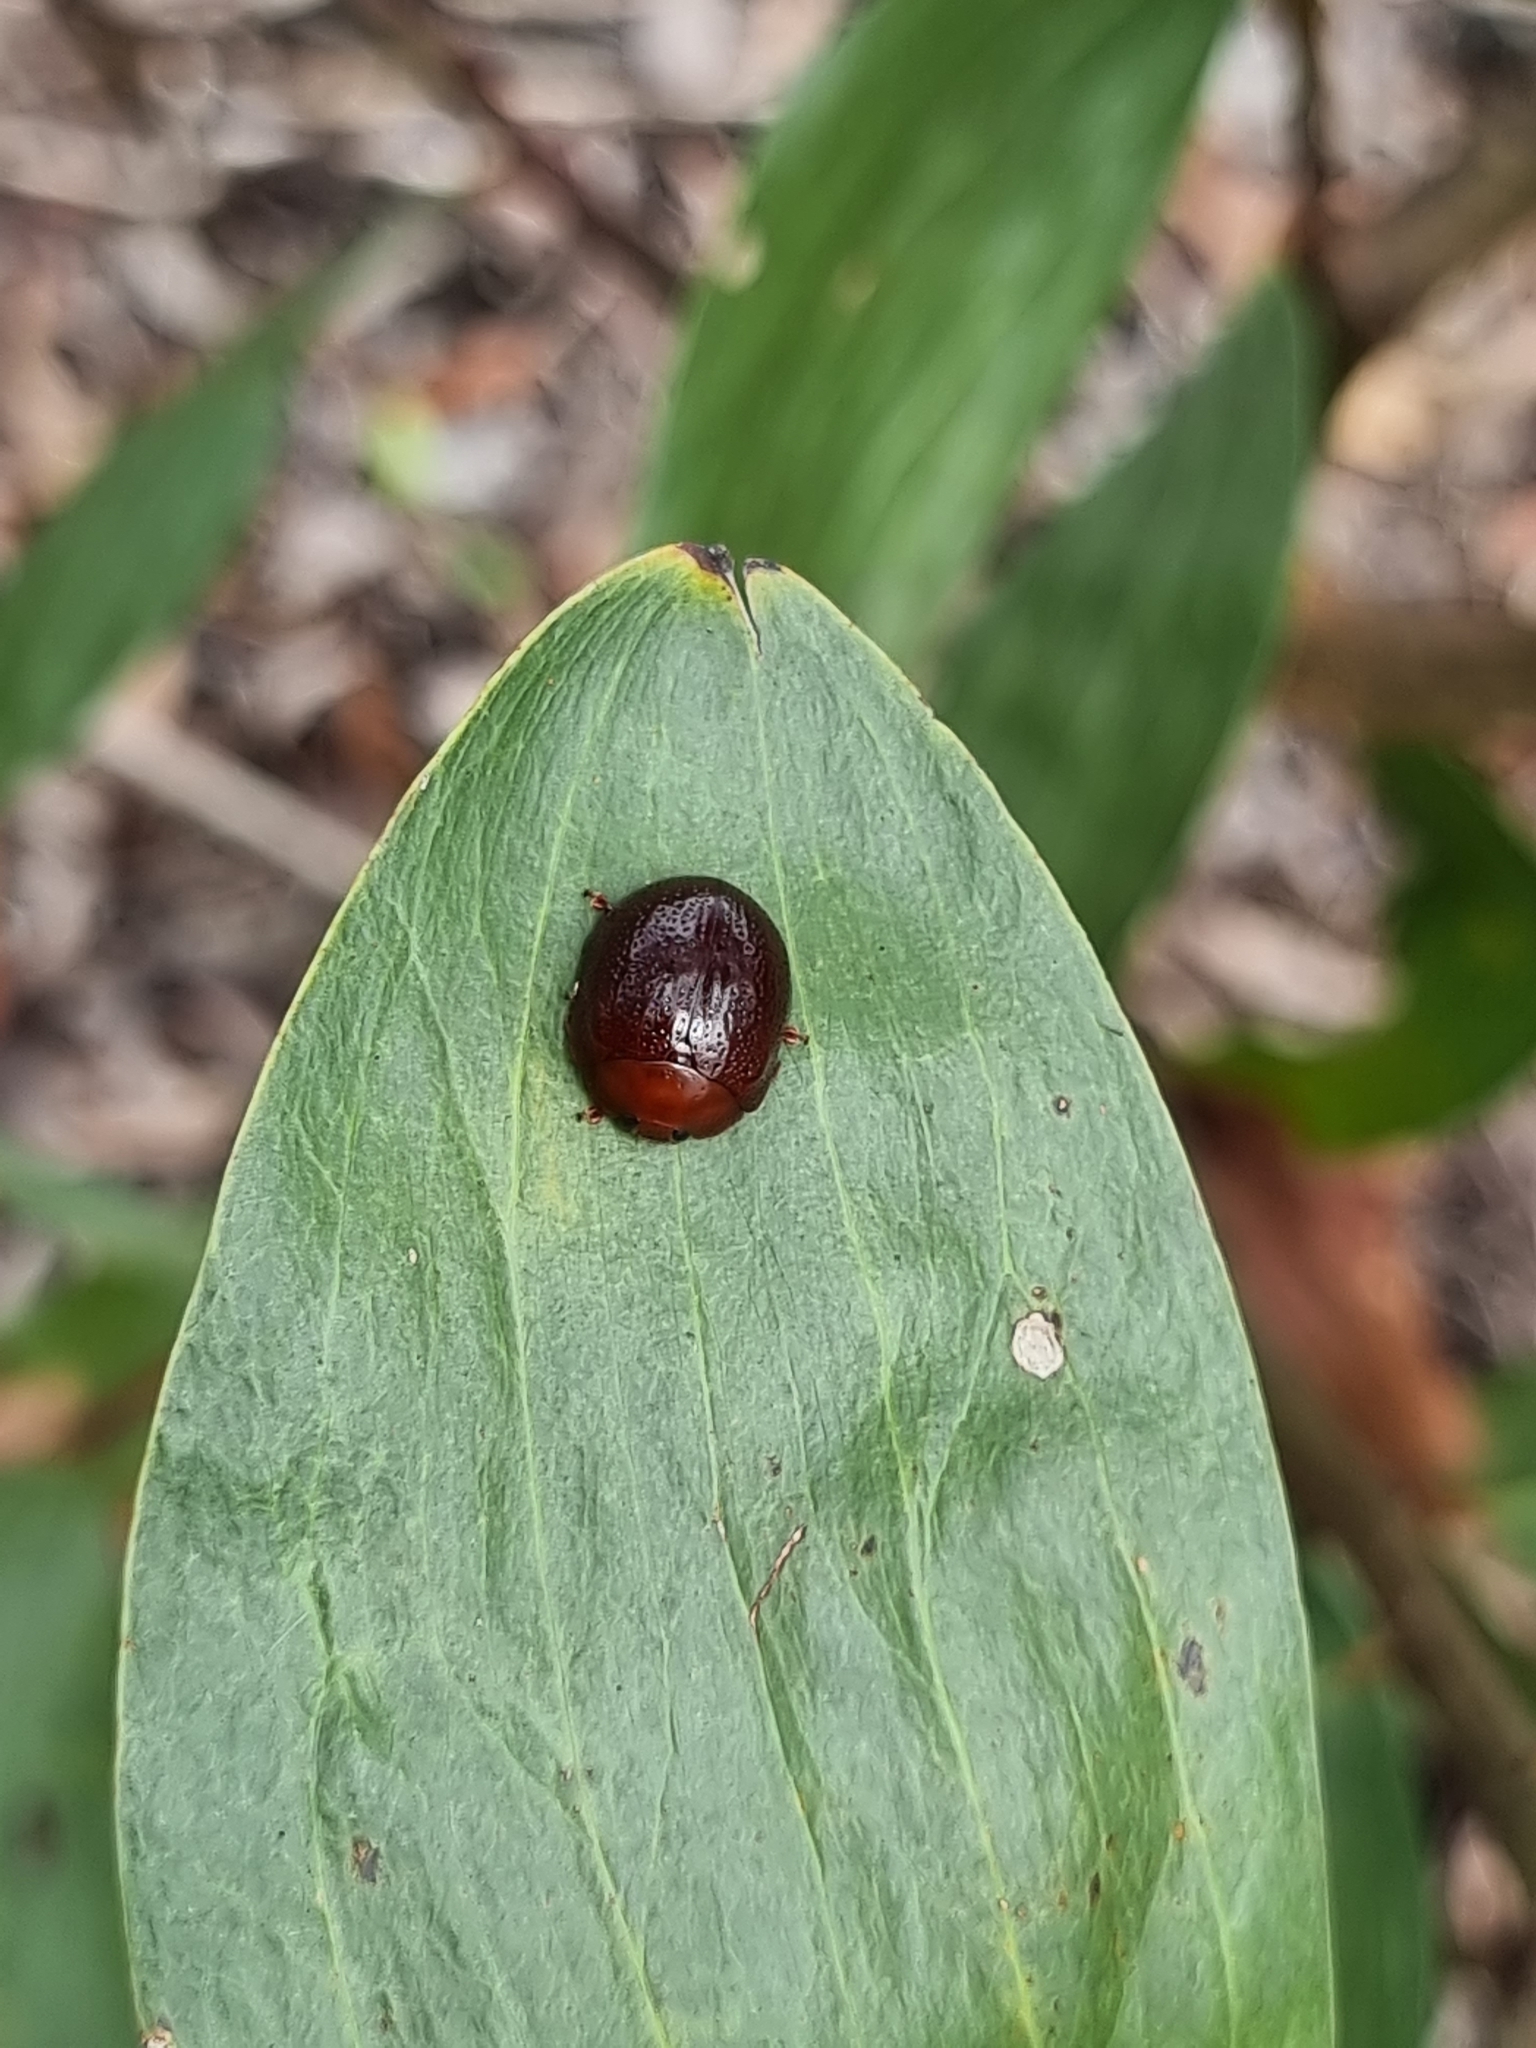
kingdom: Animalia
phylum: Arthropoda
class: Insecta
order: Coleoptera
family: Chrysomelidae
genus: Dicranosterna
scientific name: Dicranosterna
